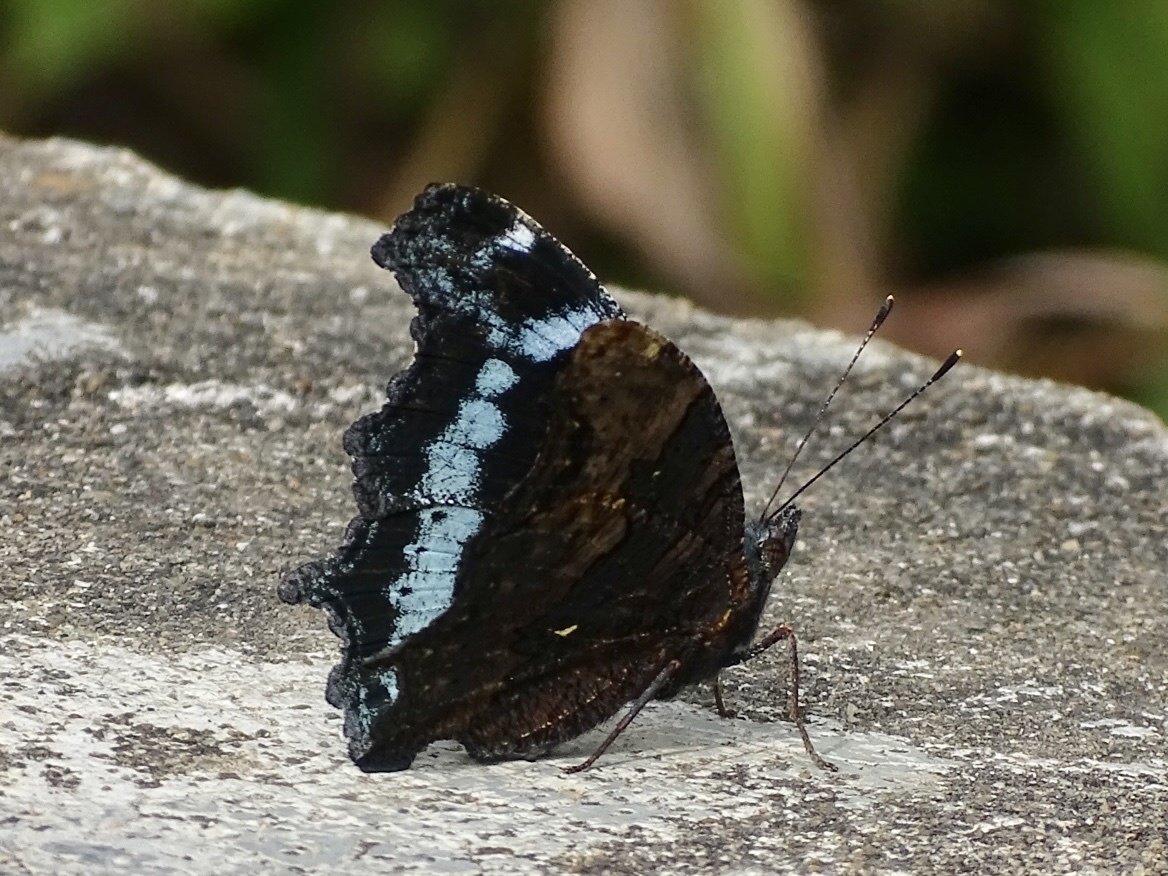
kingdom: Animalia
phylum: Arthropoda
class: Insecta
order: Lepidoptera
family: Nymphalidae
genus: Vanessa
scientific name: Vanessa Kaniska canace
